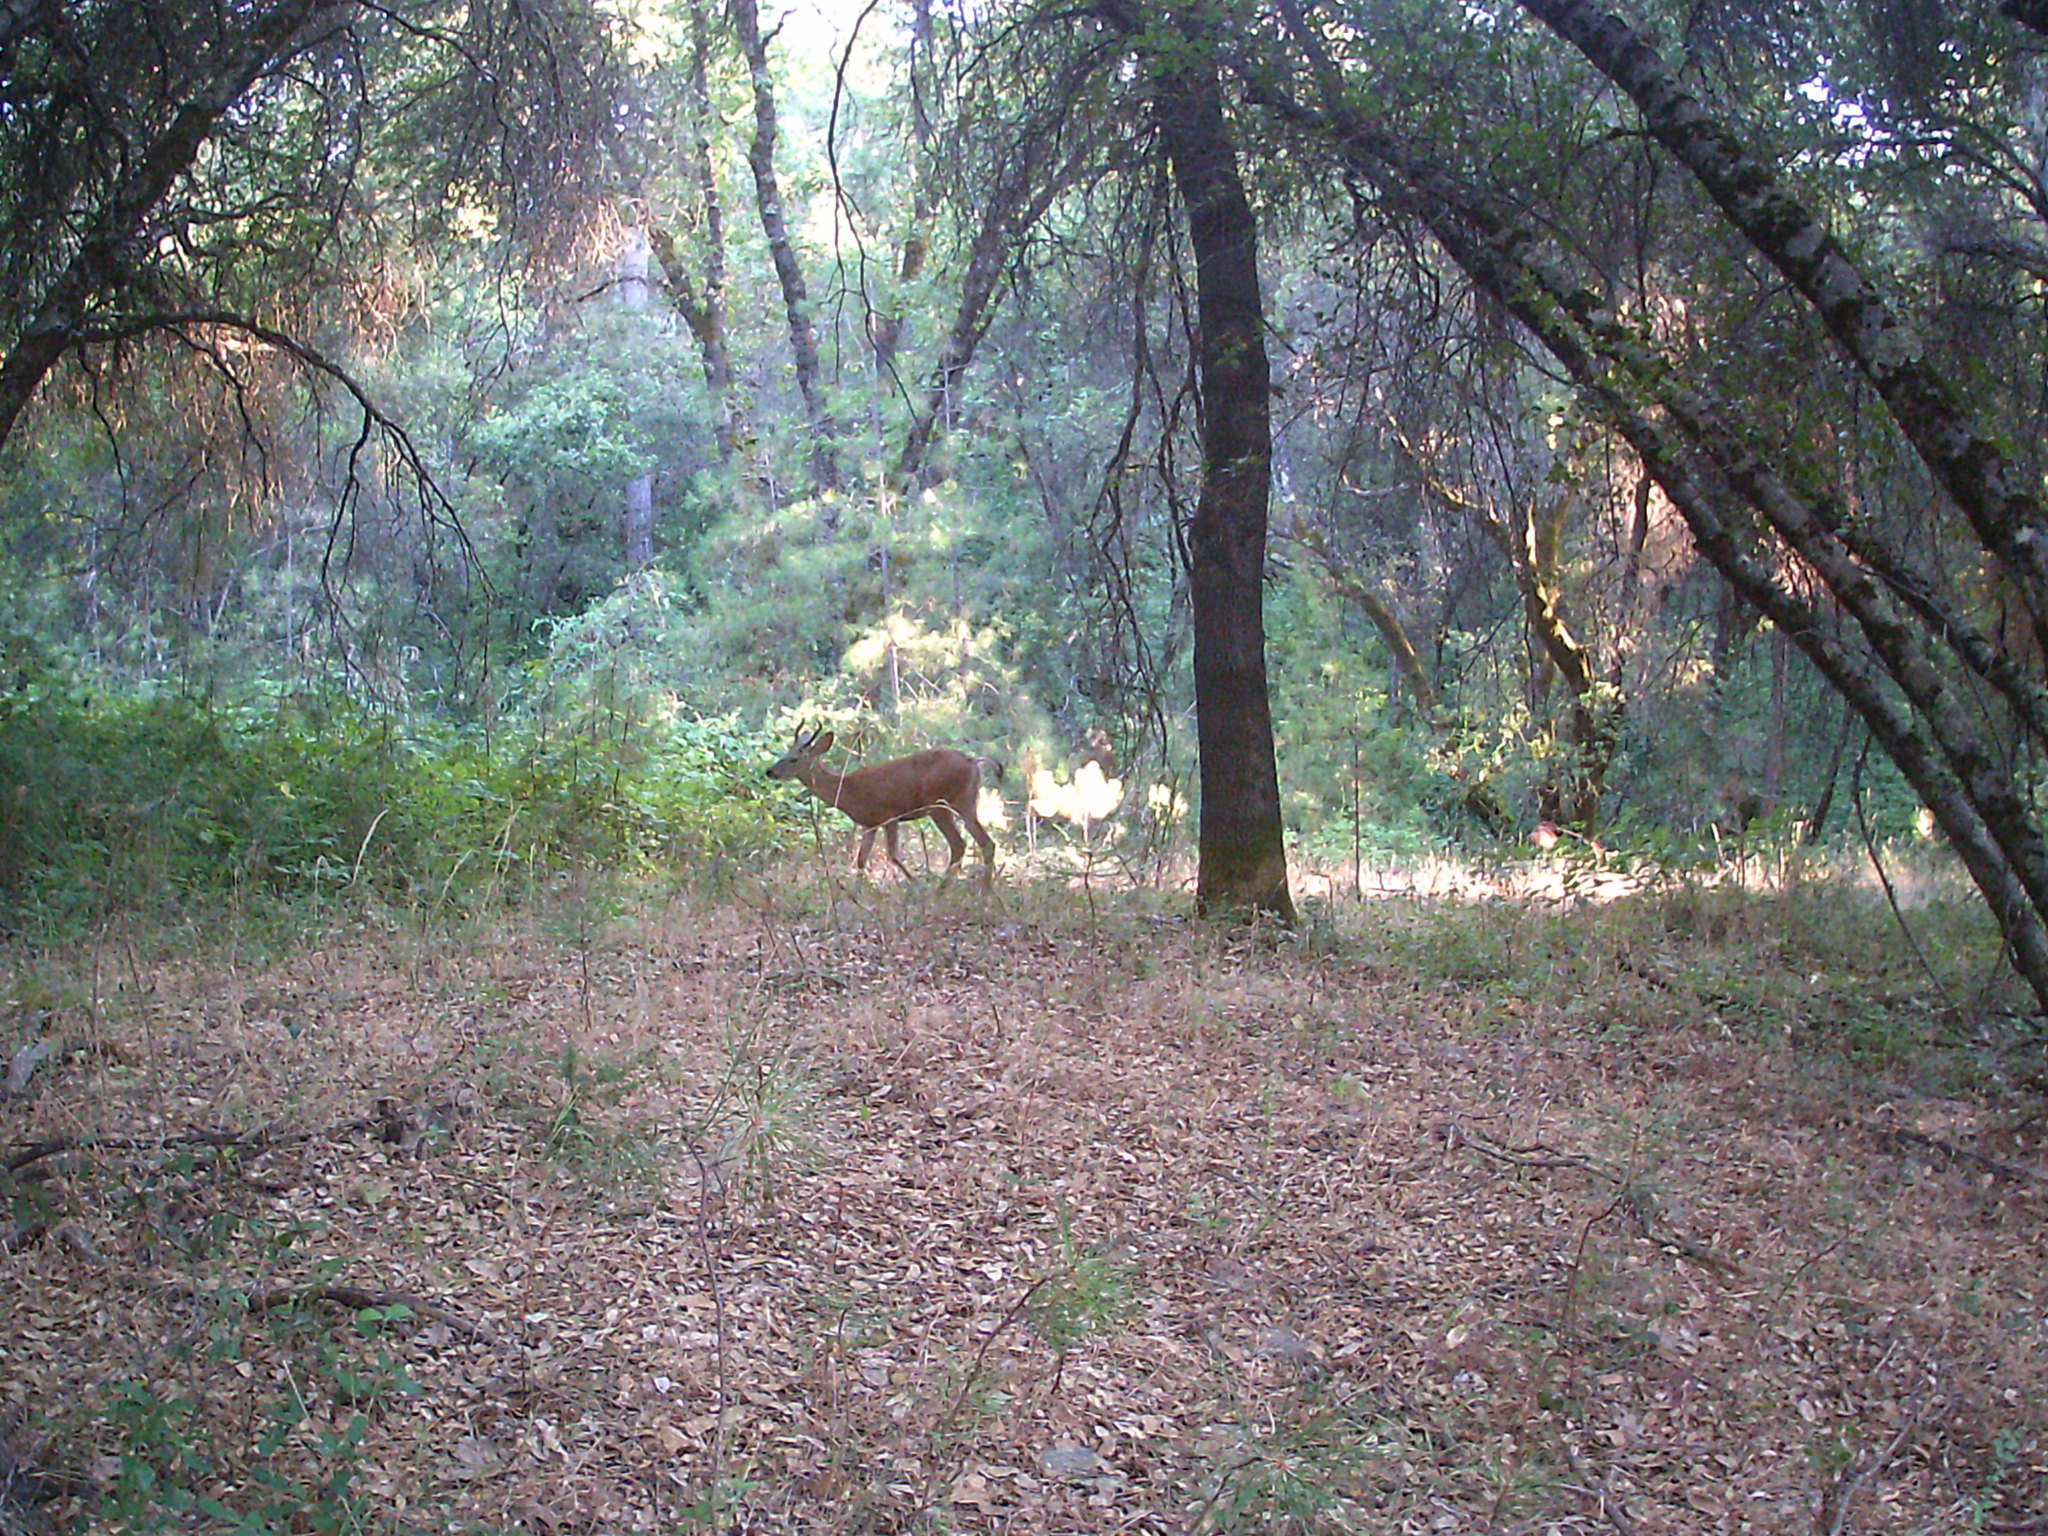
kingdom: Animalia
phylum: Chordata
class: Mammalia
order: Artiodactyla
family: Cervidae
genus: Odocoileus
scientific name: Odocoileus hemionus
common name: Mule deer
